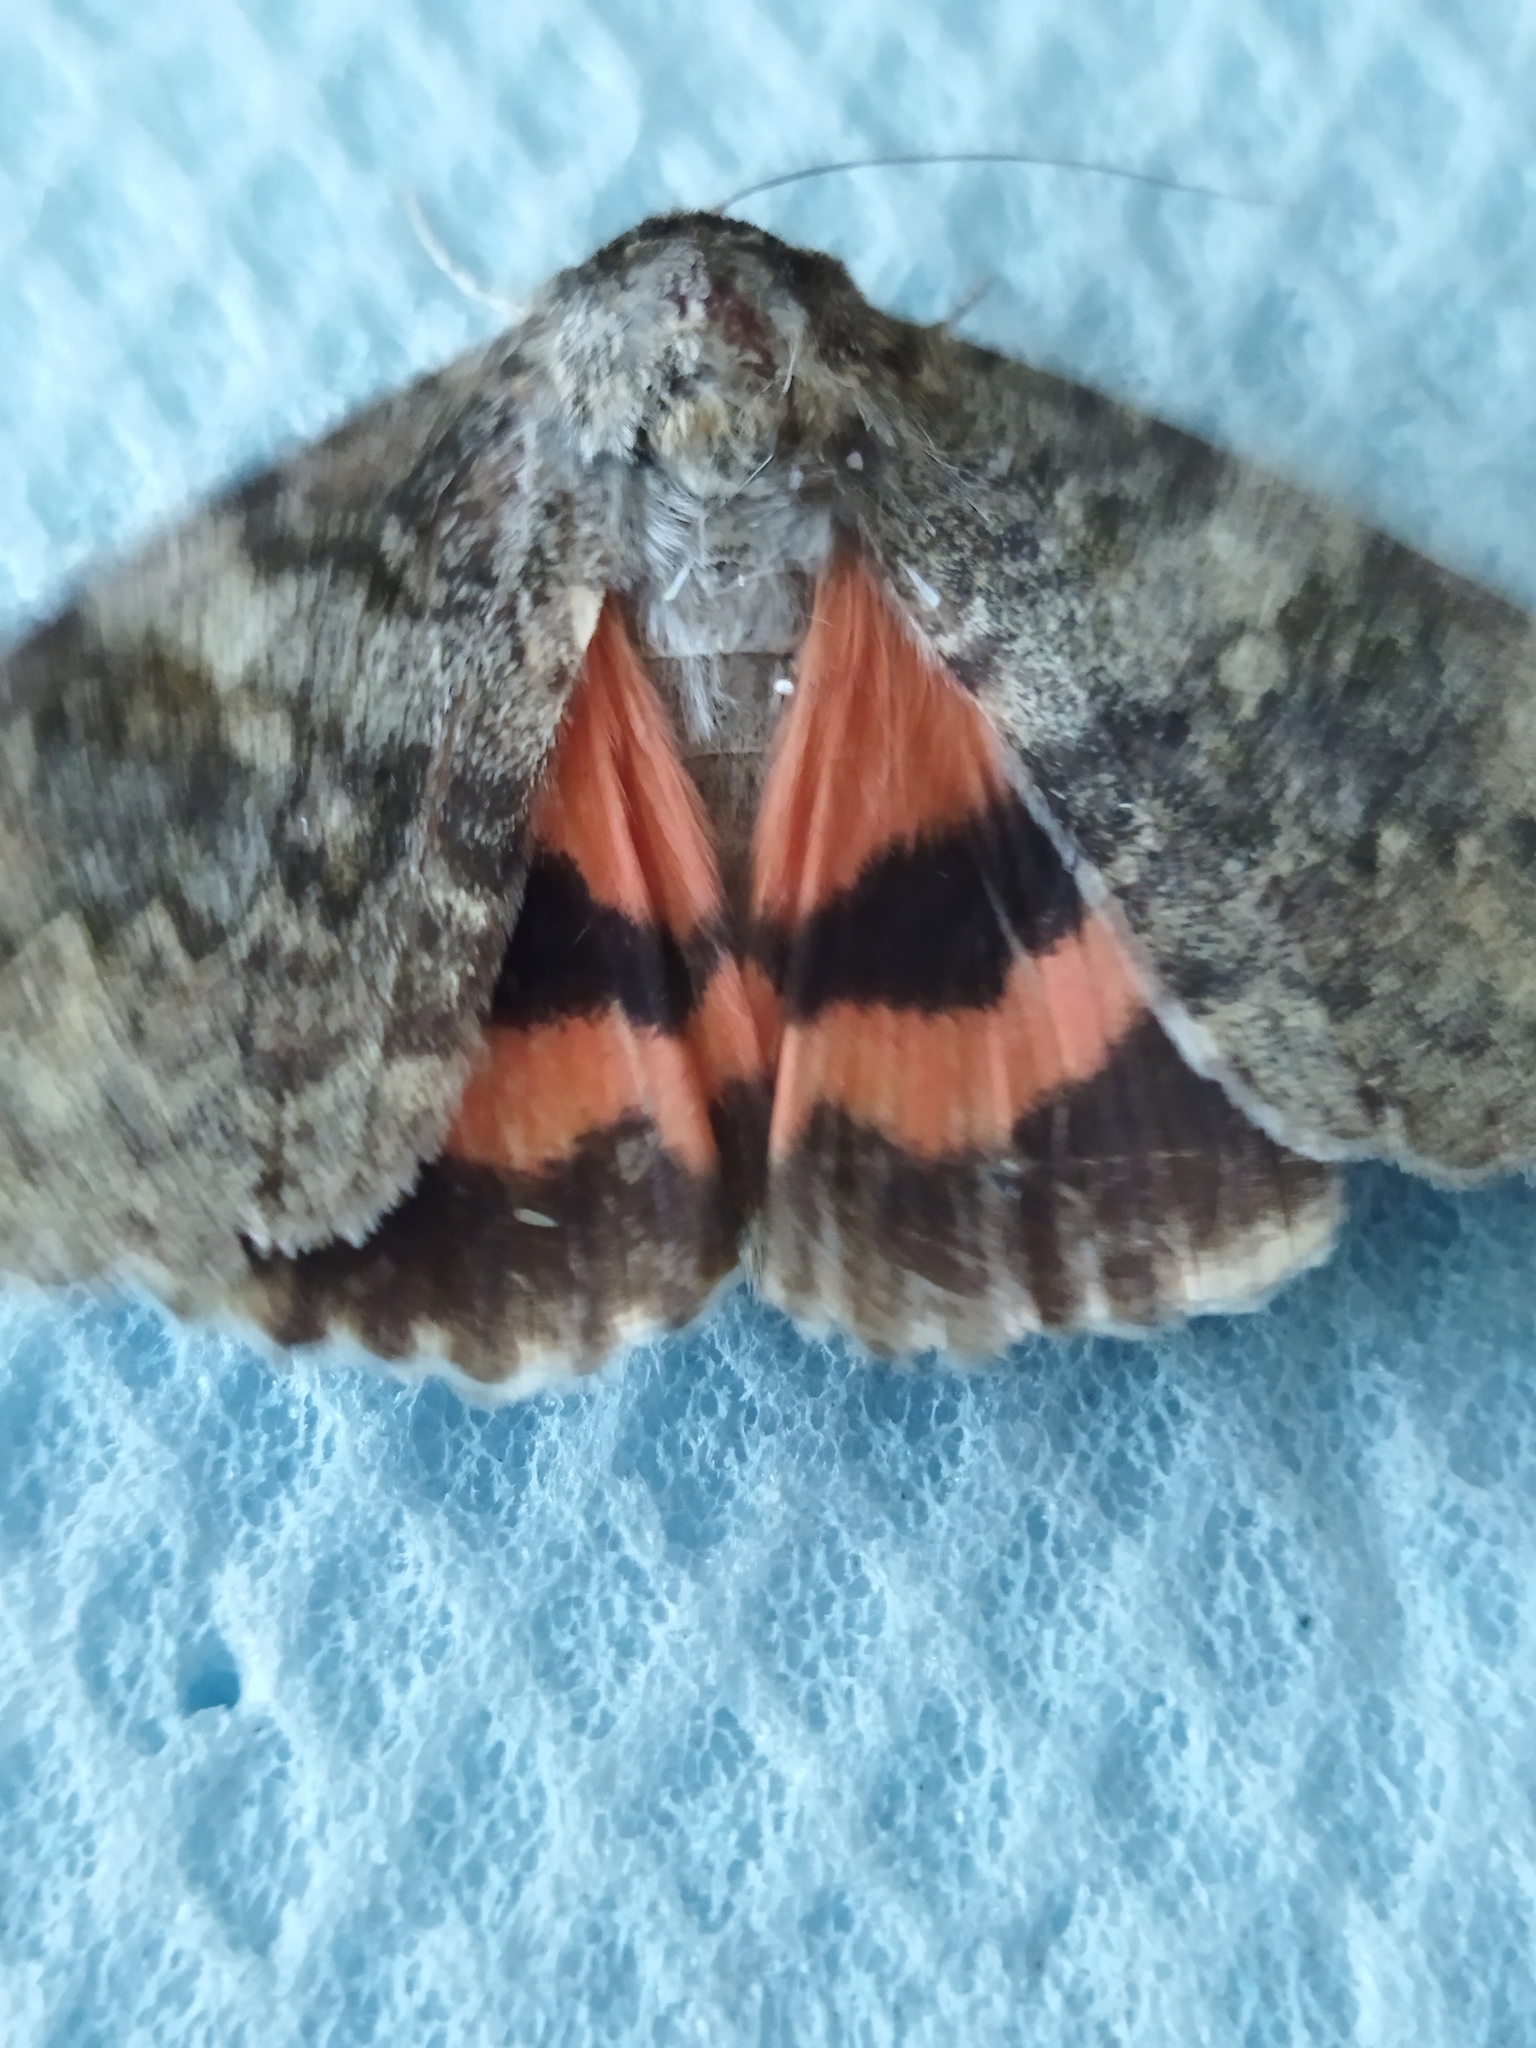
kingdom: Animalia
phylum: Arthropoda
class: Insecta
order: Lepidoptera
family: Erebidae
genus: Catocala
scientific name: Catocala elocata
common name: French red underwing
